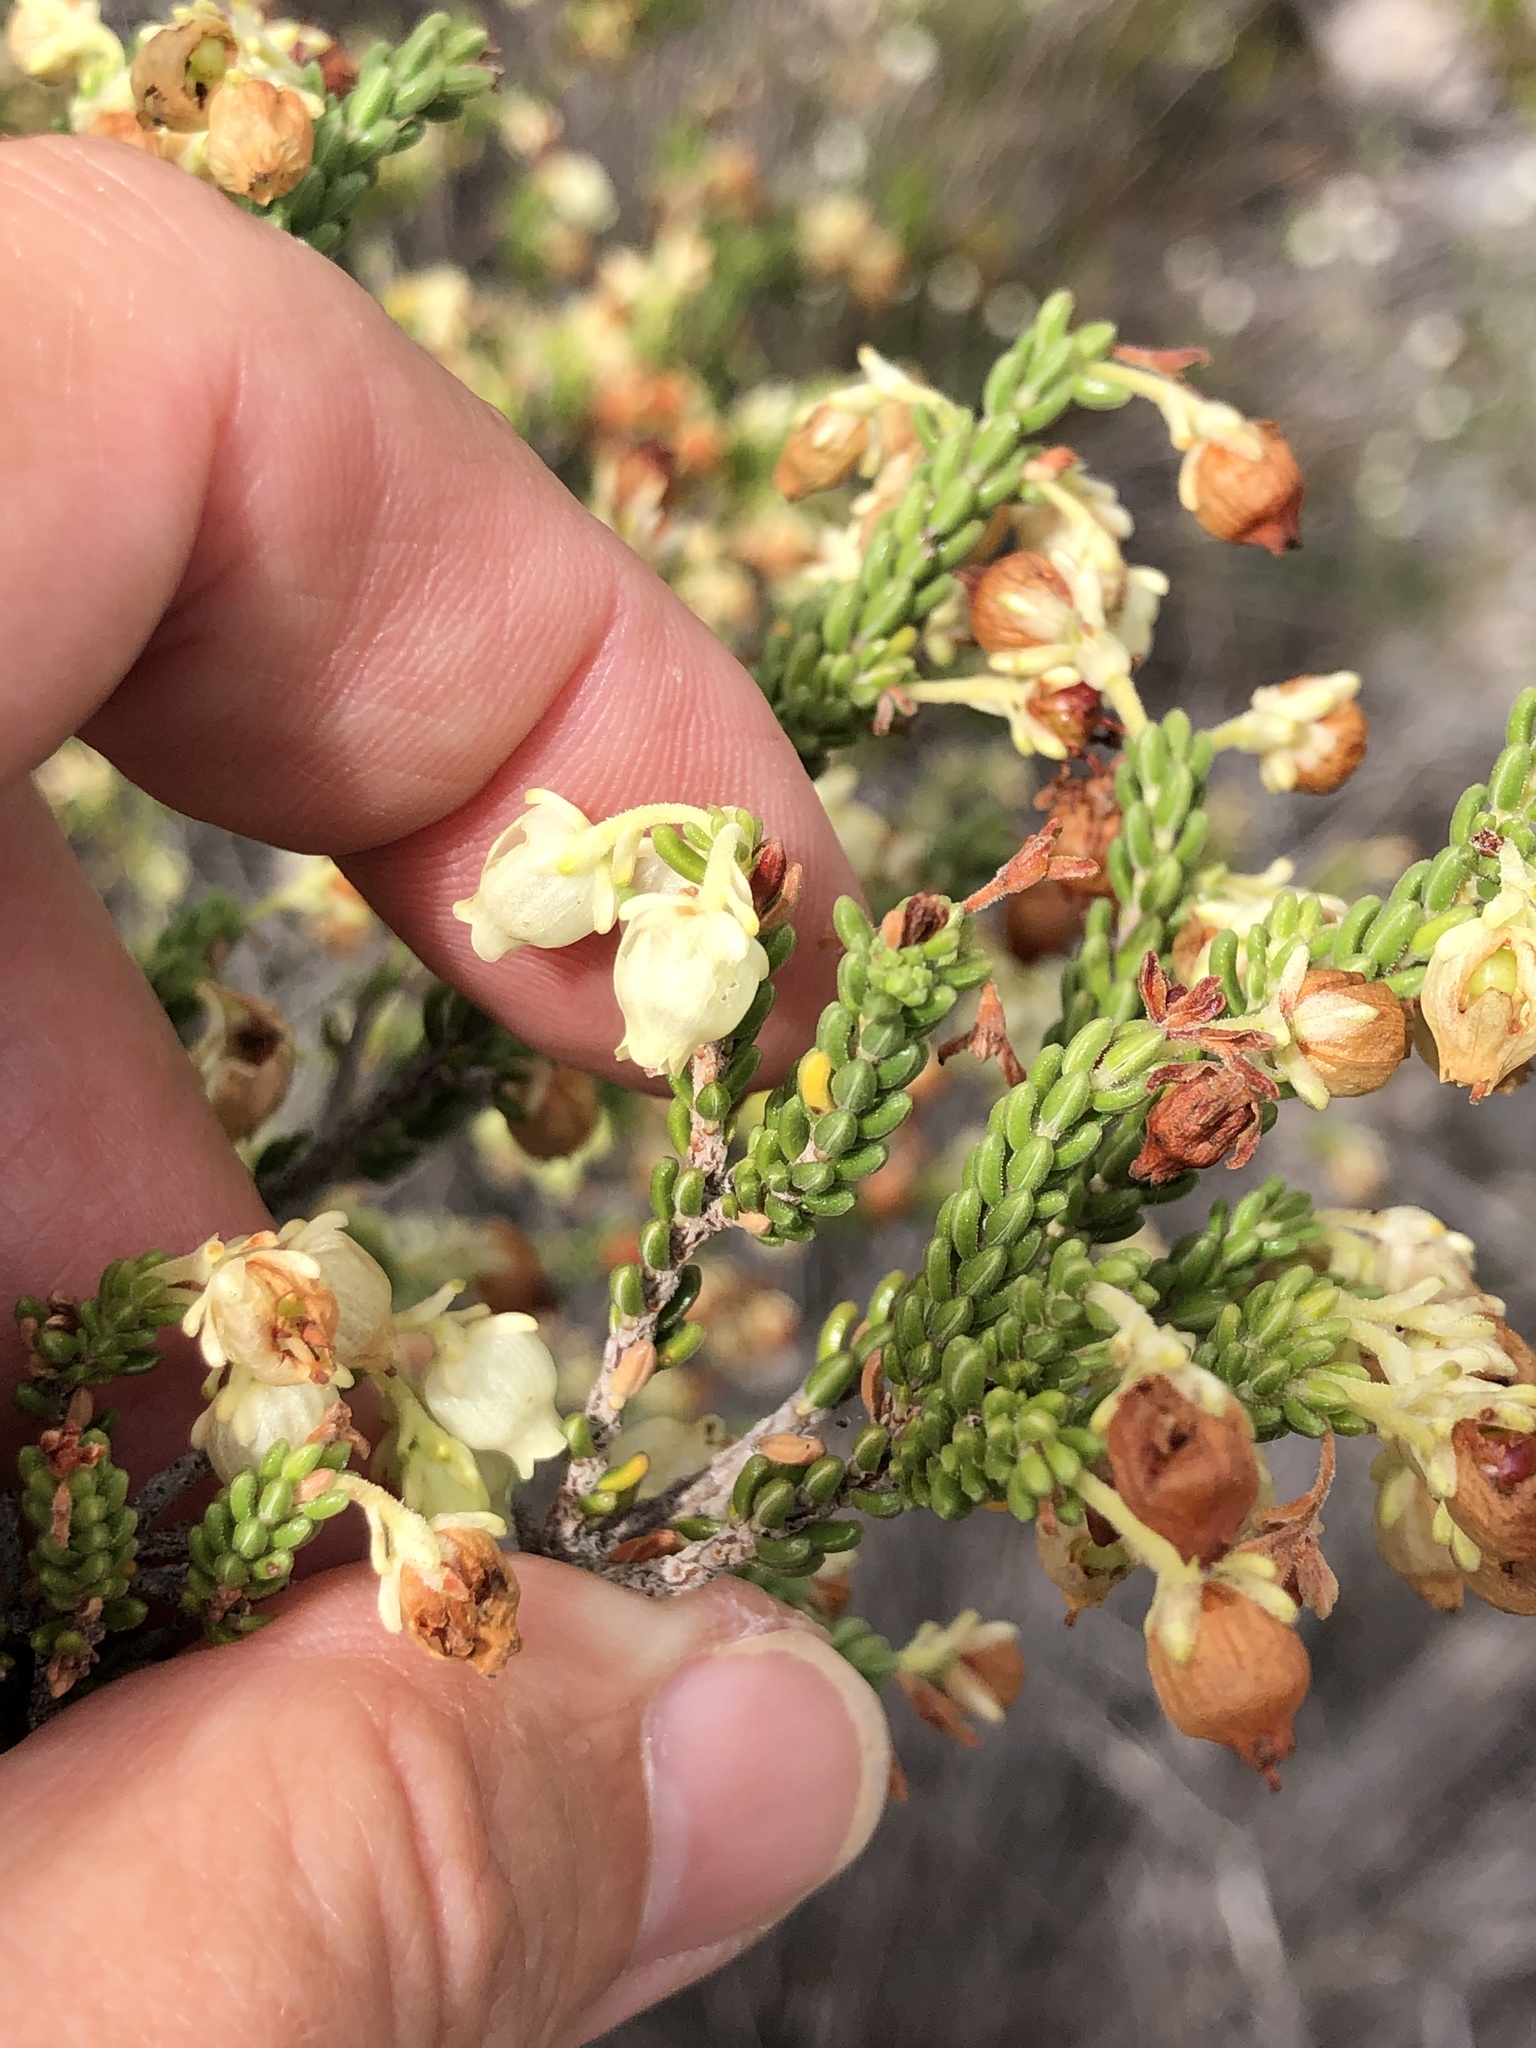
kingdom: Plantae
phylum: Tracheophyta
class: Magnoliopsida
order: Ericales
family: Ericaceae
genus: Erica
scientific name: Erica spectabilis
